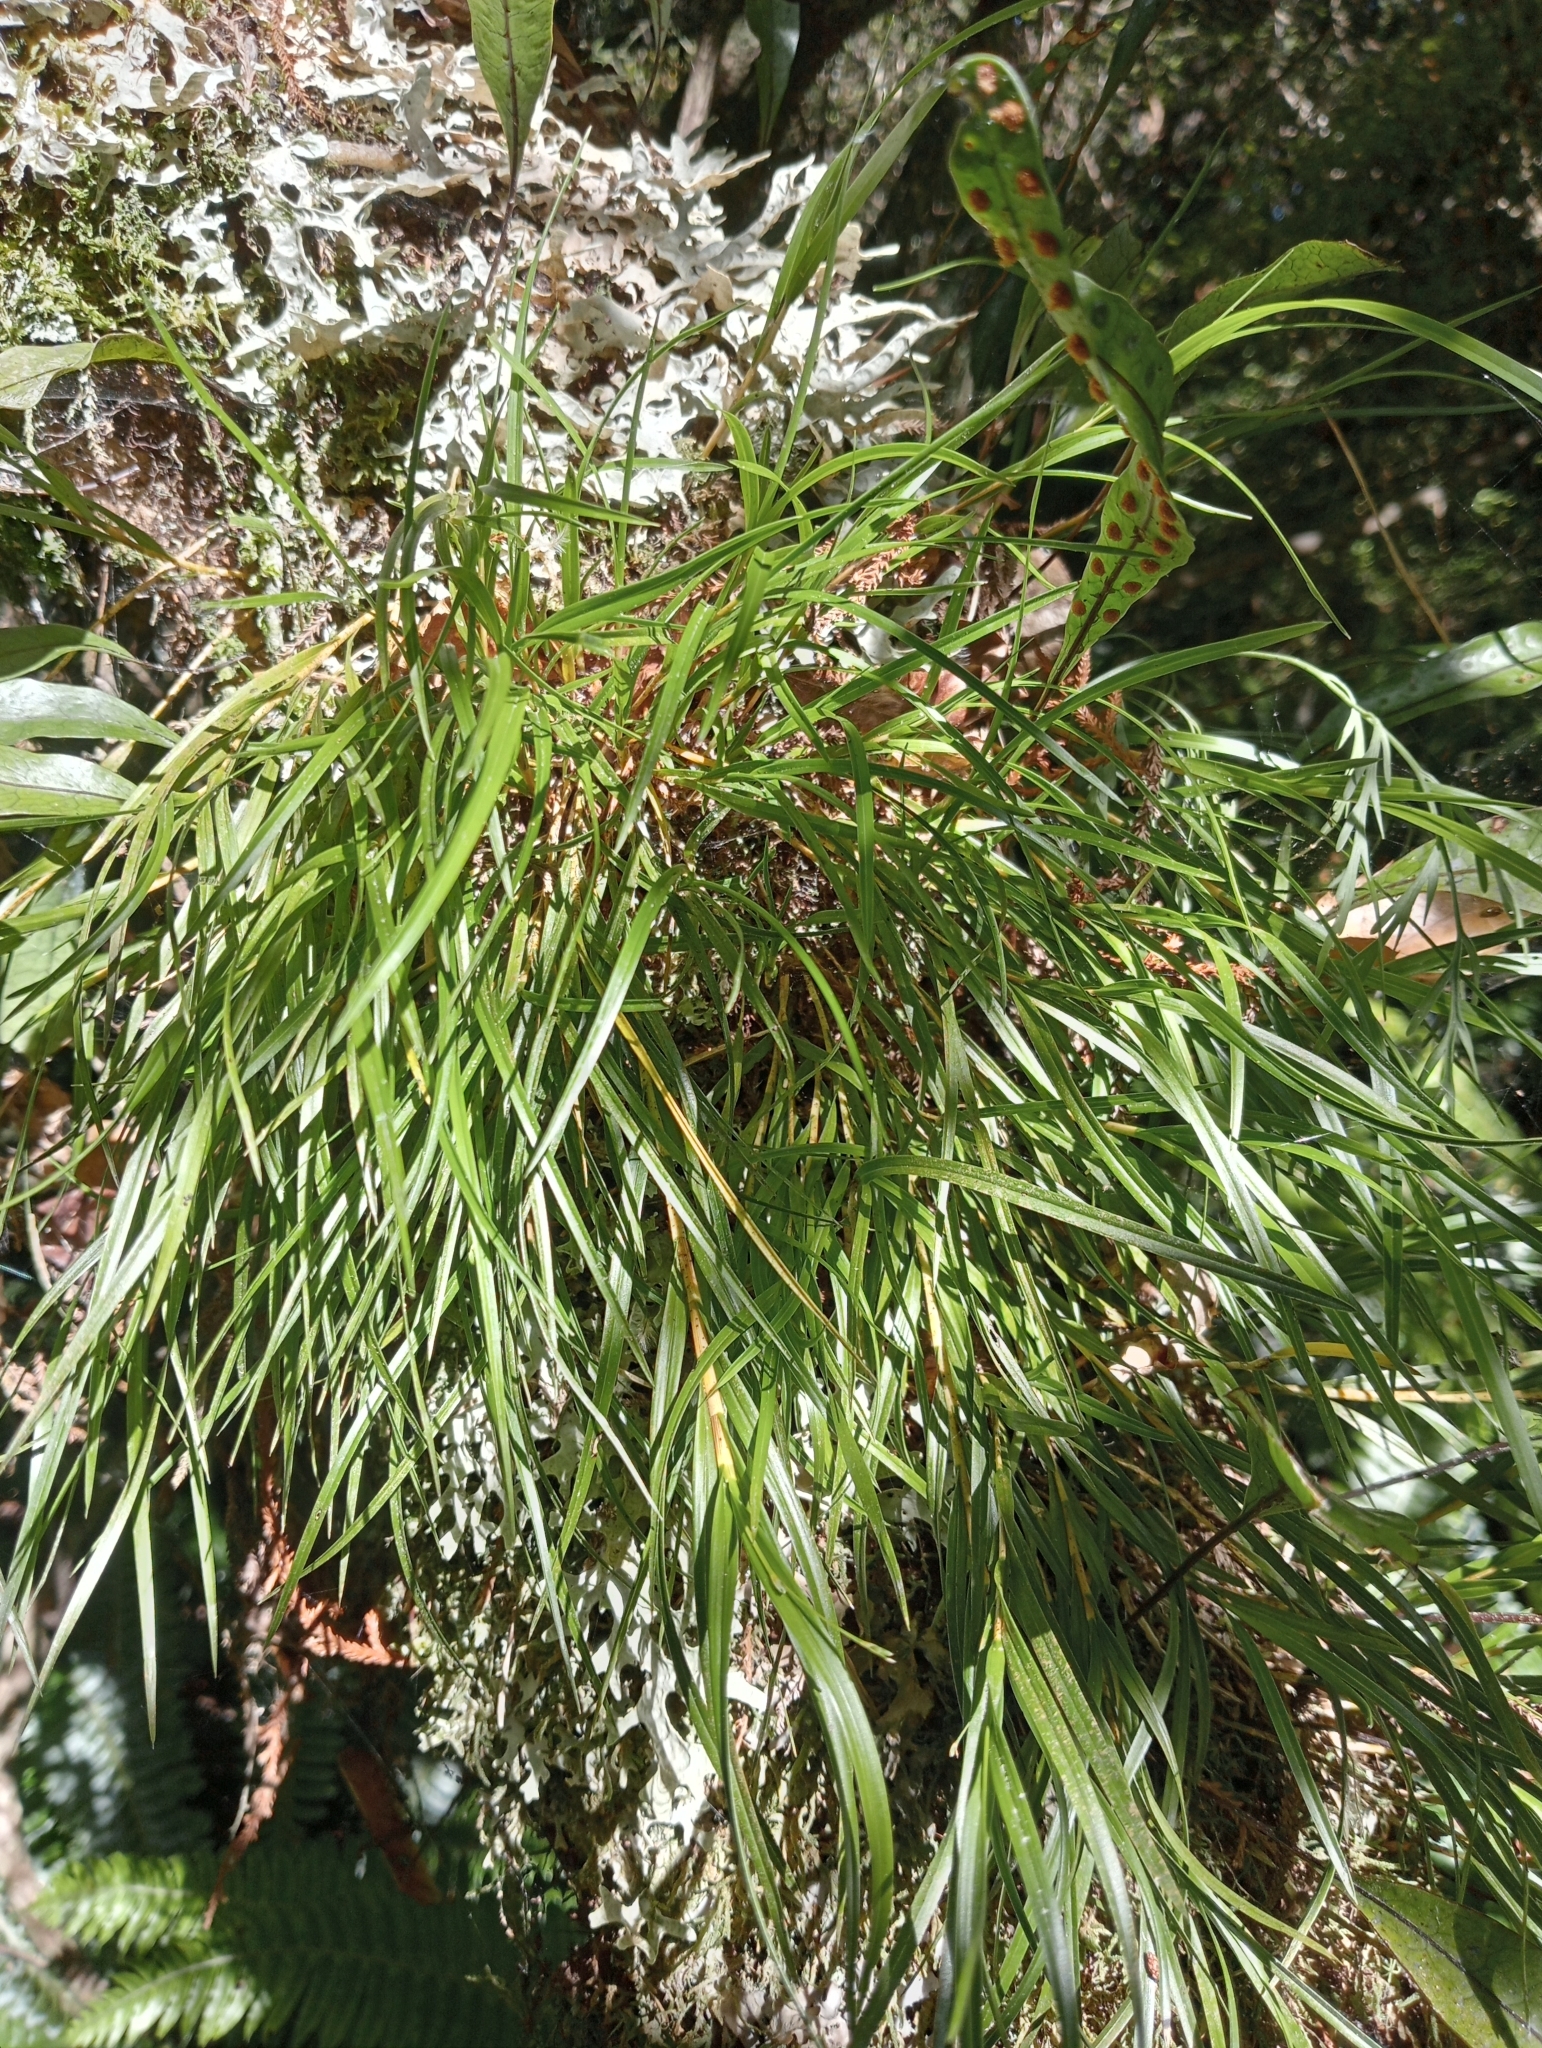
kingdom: Plantae
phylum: Tracheophyta
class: Liliopsida
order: Asparagales
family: Orchidaceae
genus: Earina
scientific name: Earina mucronata
